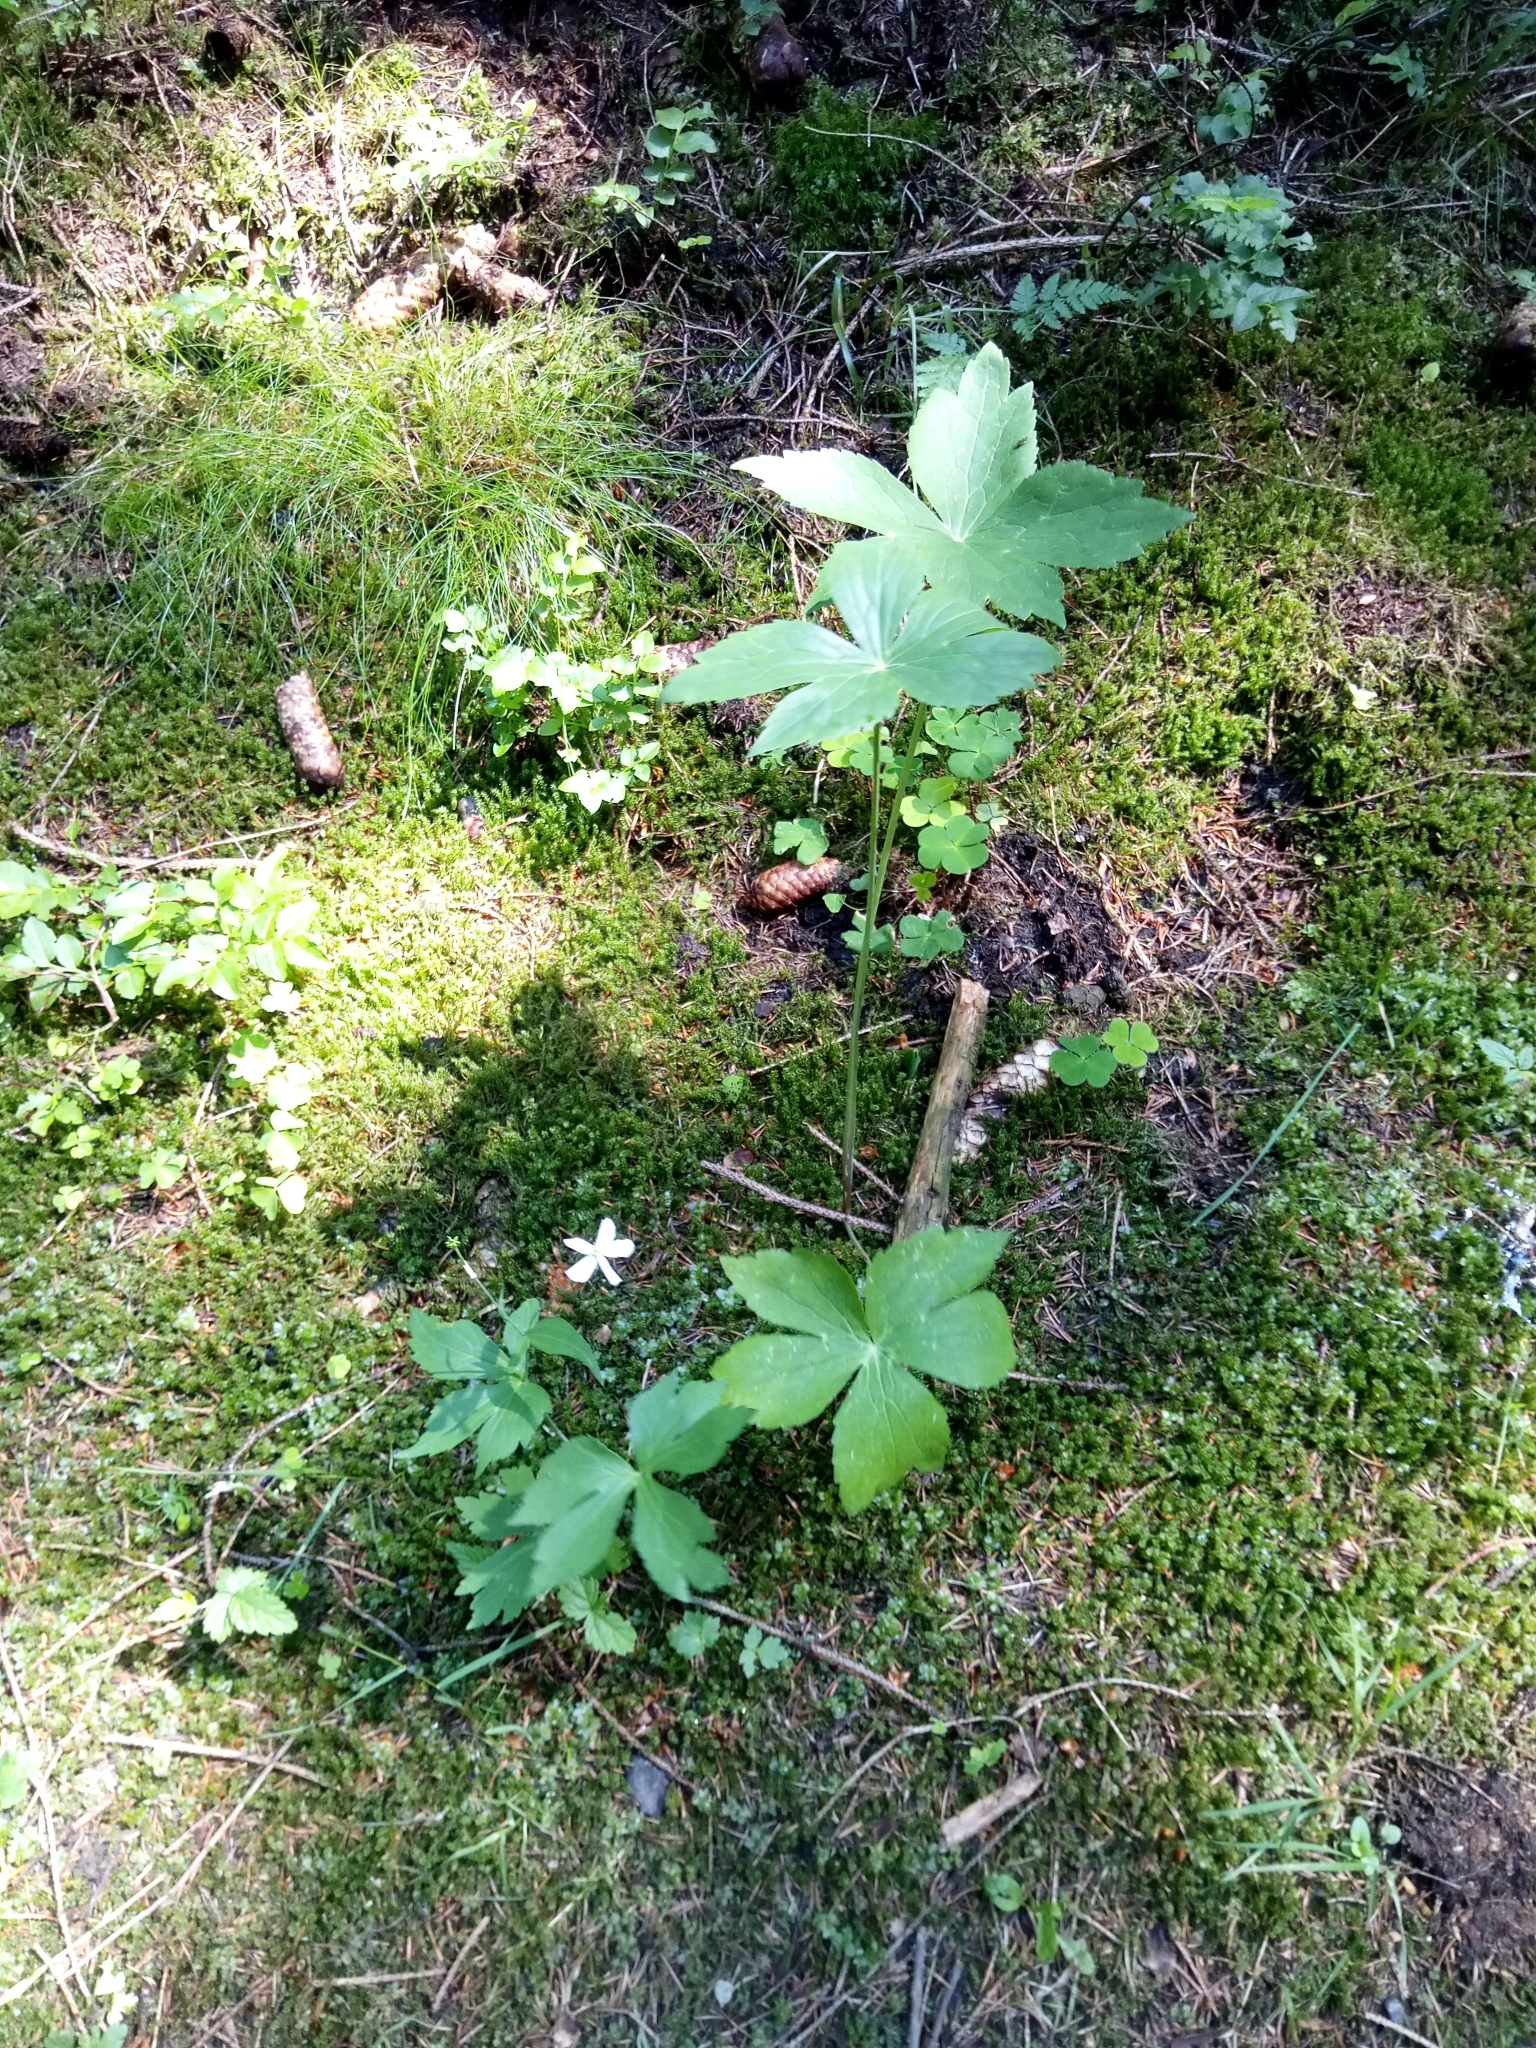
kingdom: Plantae
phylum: Tracheophyta
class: Magnoliopsida
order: Ranunculales
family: Ranunculaceae
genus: Ranunculus
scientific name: Ranunculus platanifolius
